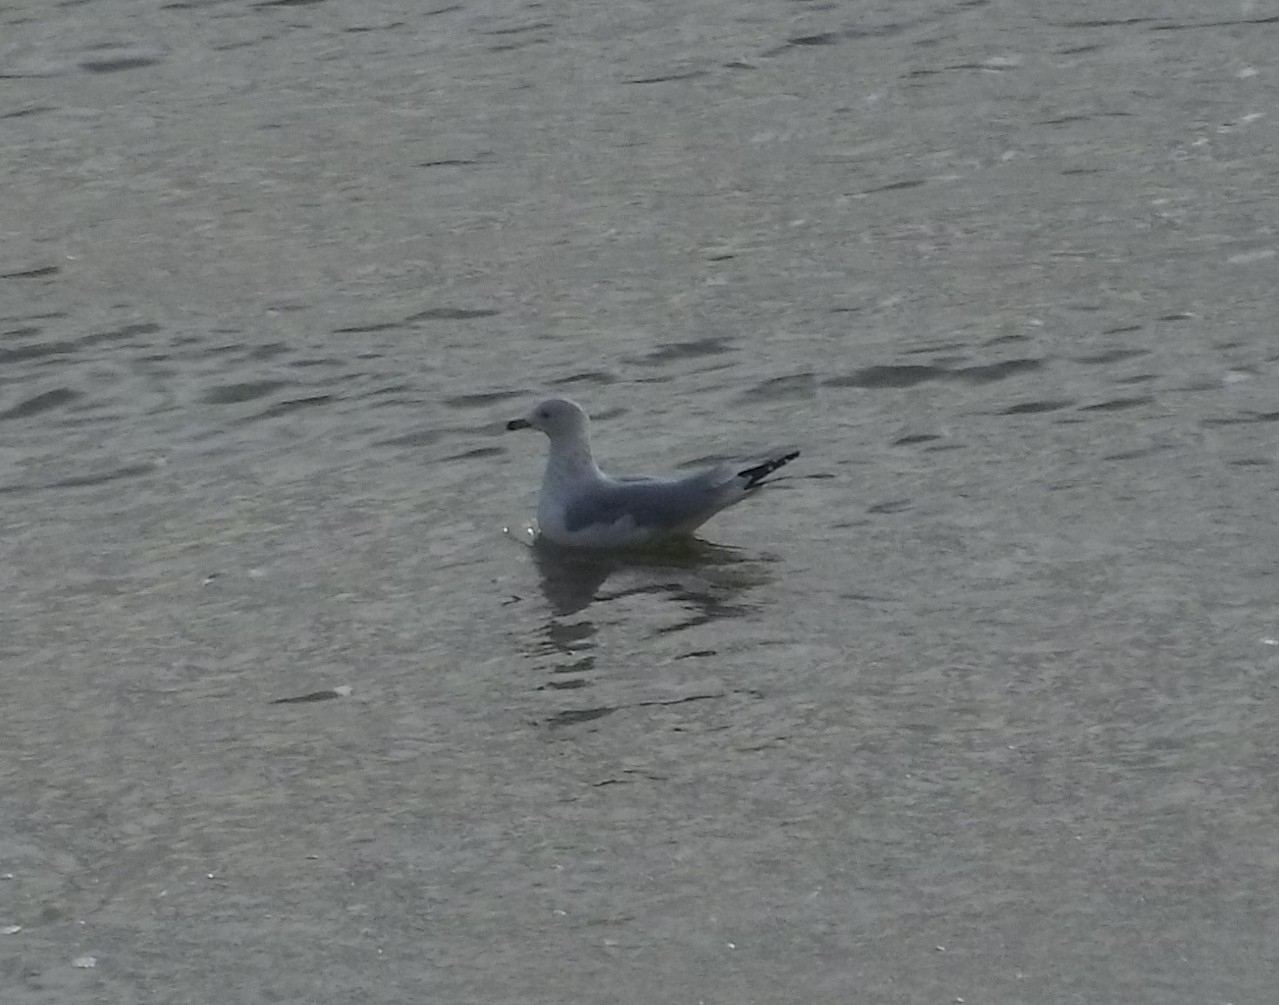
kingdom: Animalia
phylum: Chordata
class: Aves
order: Charadriiformes
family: Laridae
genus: Larus
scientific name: Larus delawarensis
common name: Ring-billed gull
